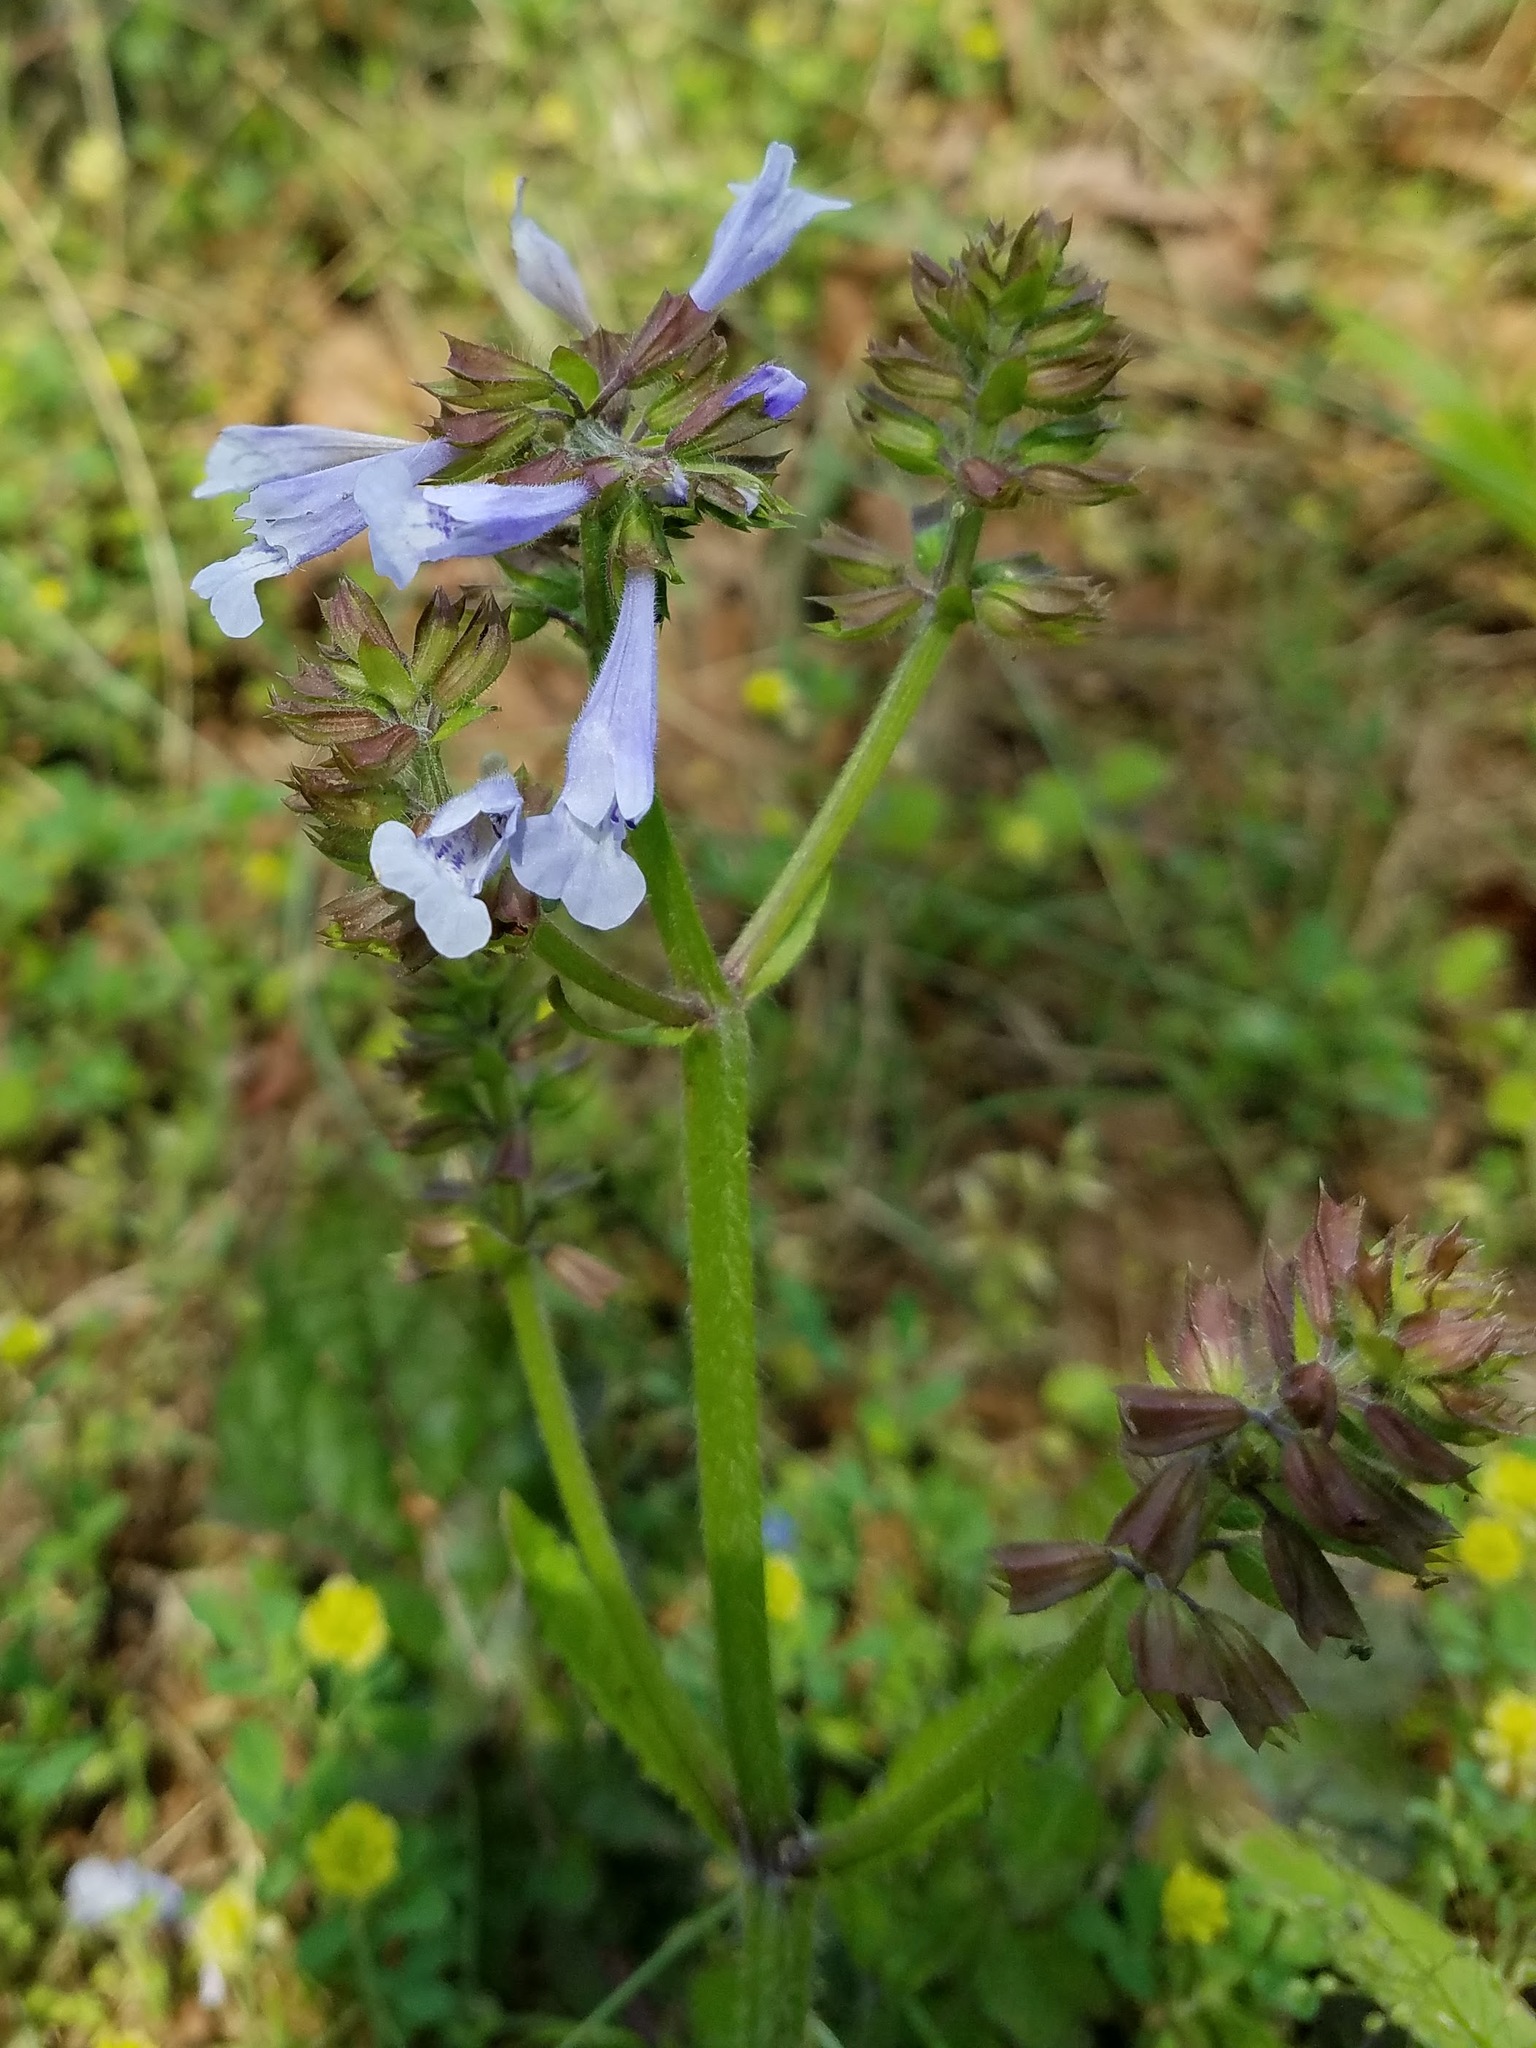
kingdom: Plantae
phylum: Tracheophyta
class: Magnoliopsida
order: Lamiales
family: Lamiaceae
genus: Salvia
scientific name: Salvia lyrata
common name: Cancerweed
